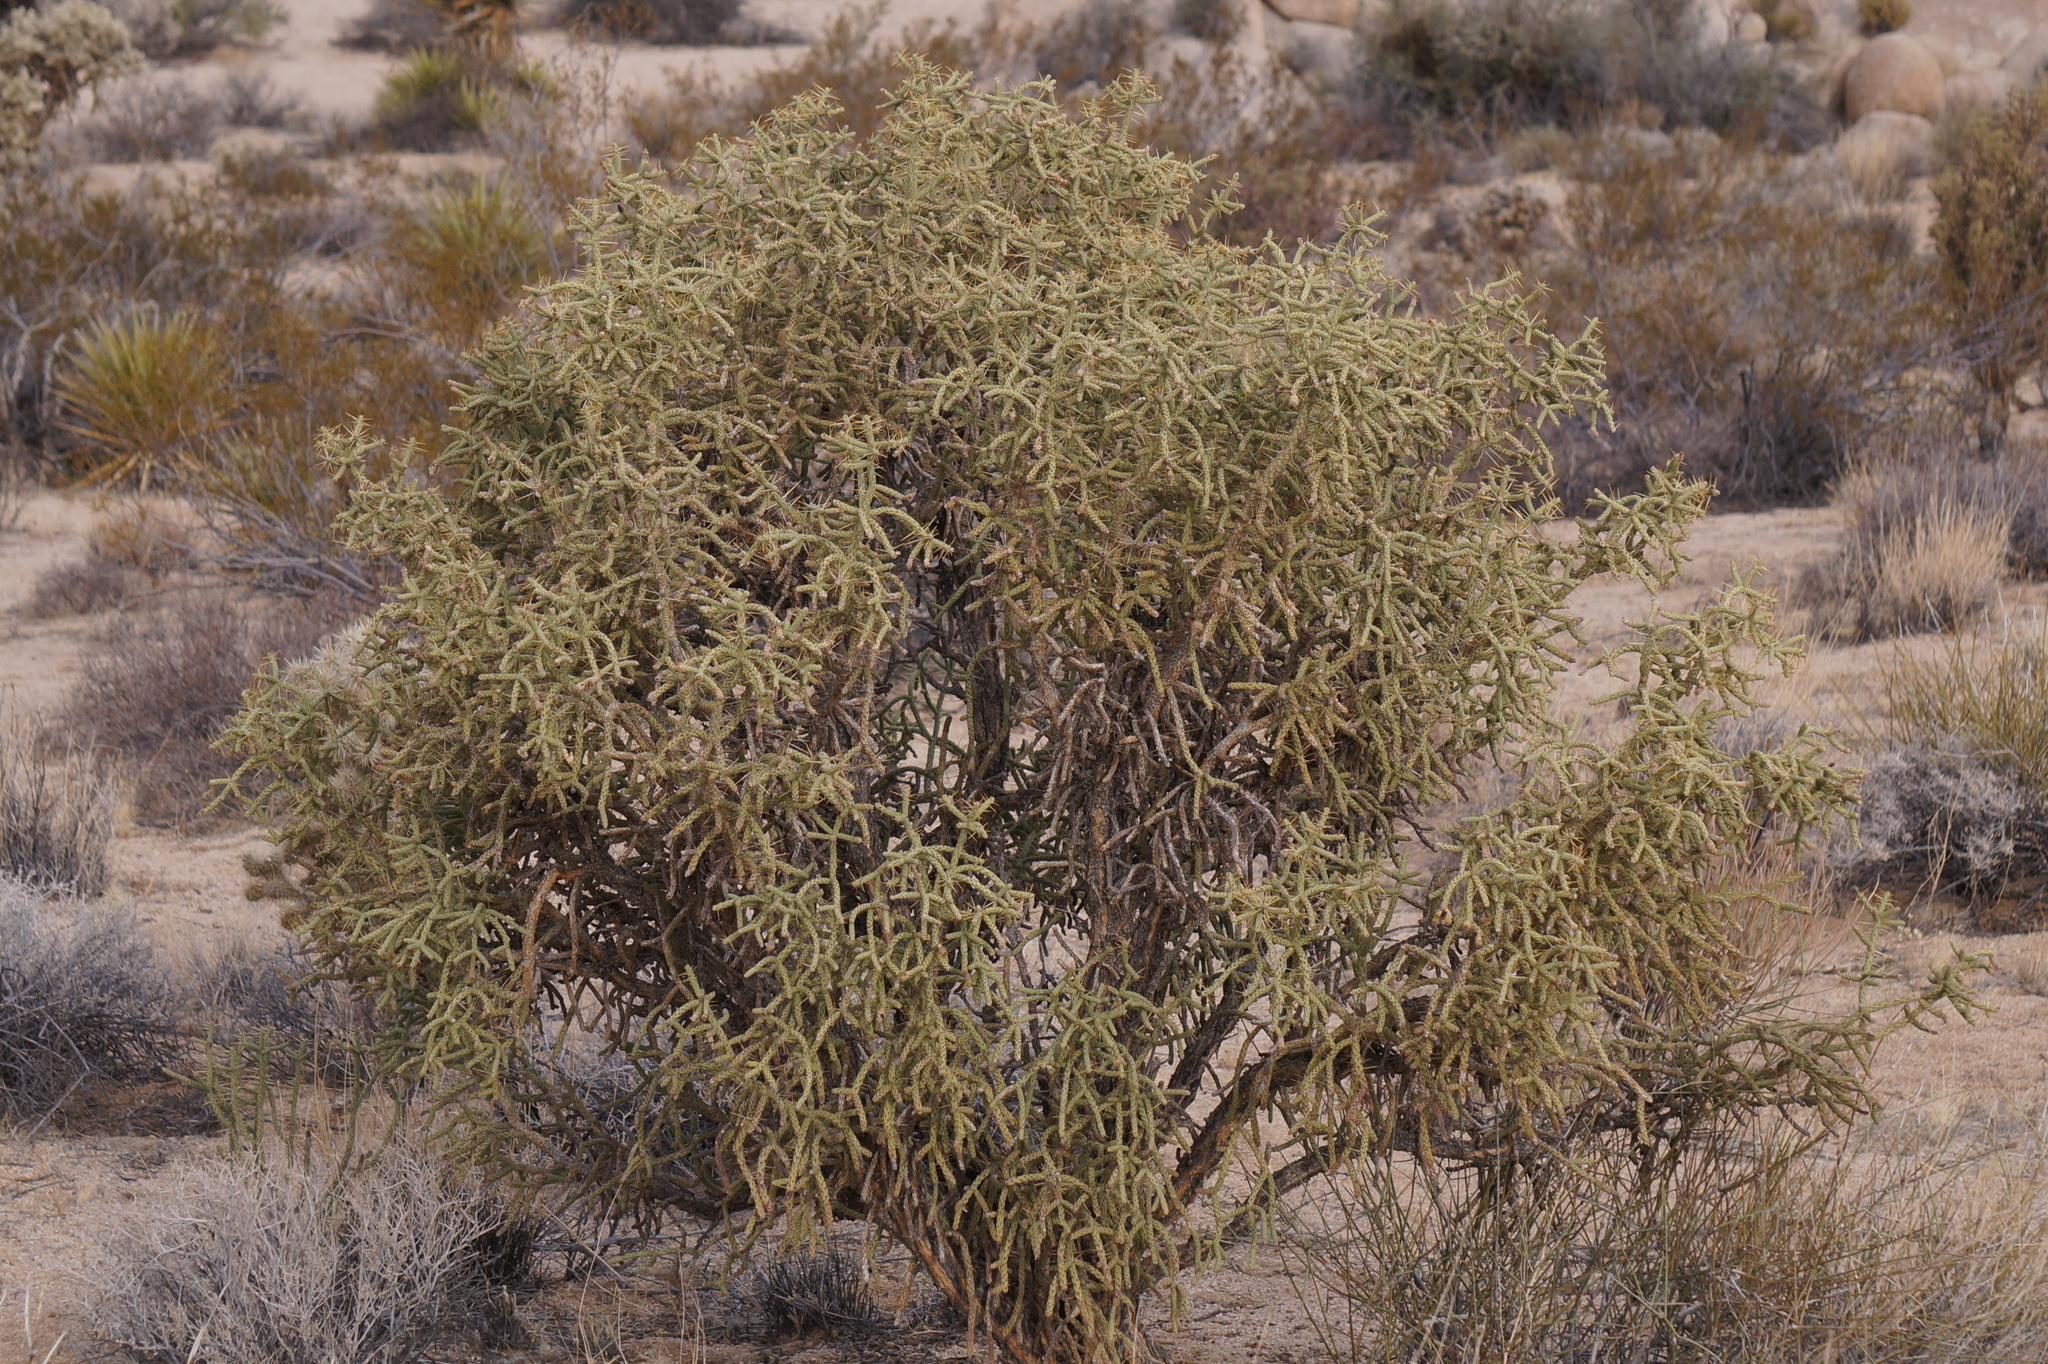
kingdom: Plantae
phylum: Tracheophyta
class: Magnoliopsida
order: Caryophyllales
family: Cactaceae
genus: Cylindropuntia
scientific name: Cylindropuntia ramosissima
